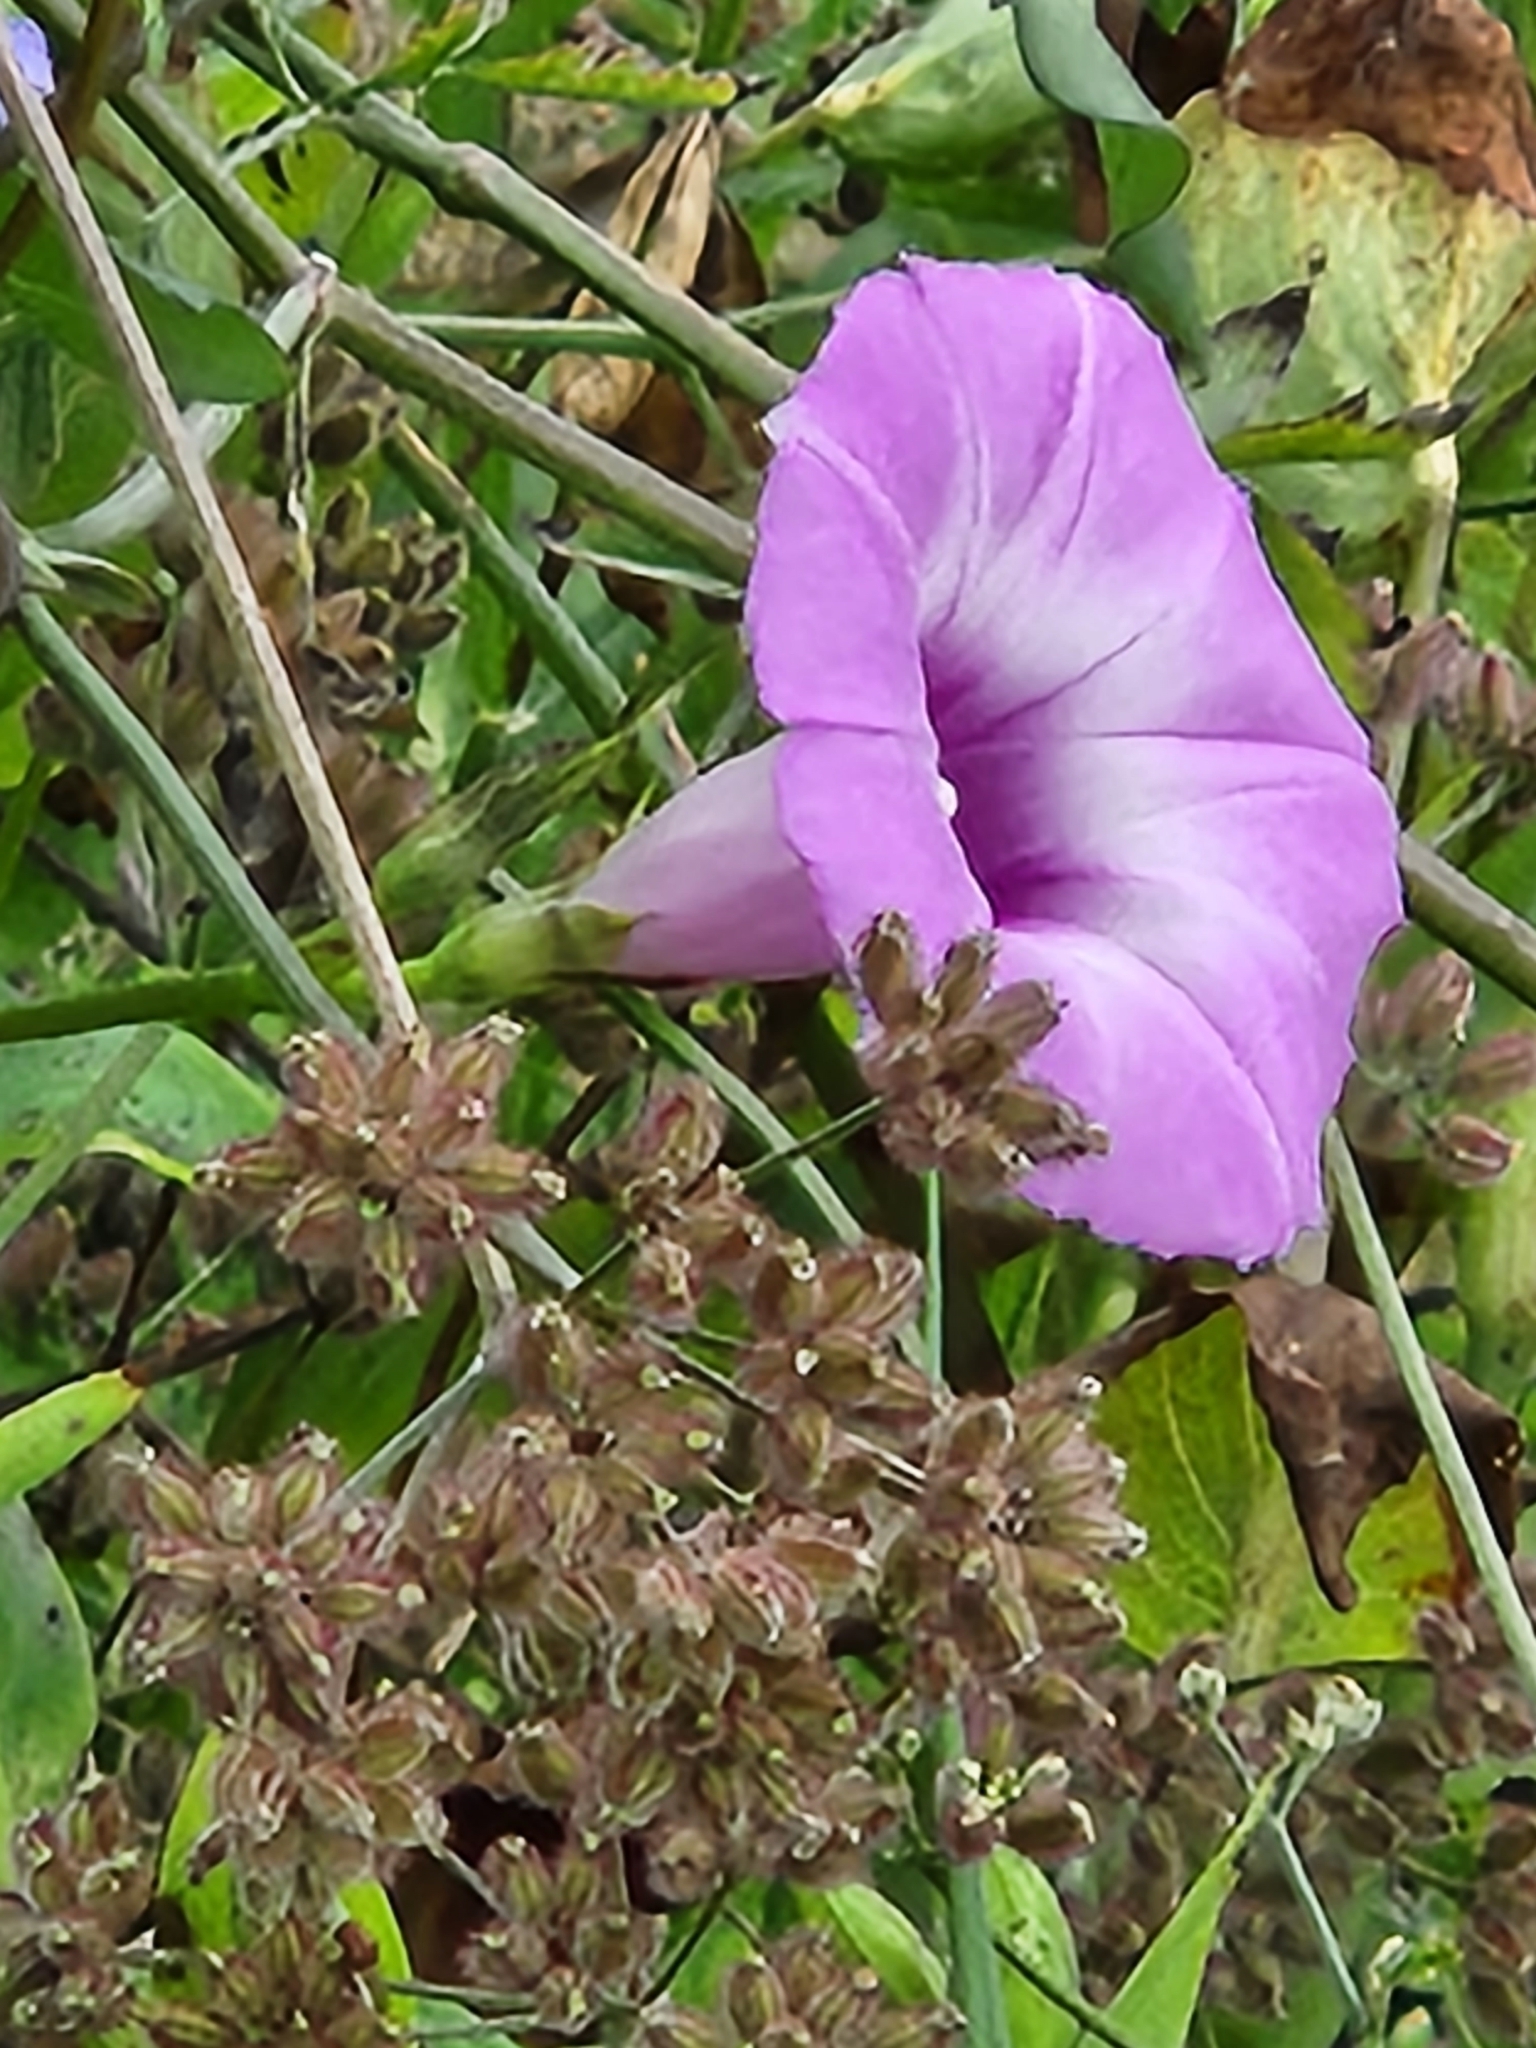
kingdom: Plantae
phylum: Tracheophyta
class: Magnoliopsida
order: Solanales
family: Convolvulaceae
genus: Ipomoea
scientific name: Ipomoea cordatotriloba
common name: Cotton morning glory
